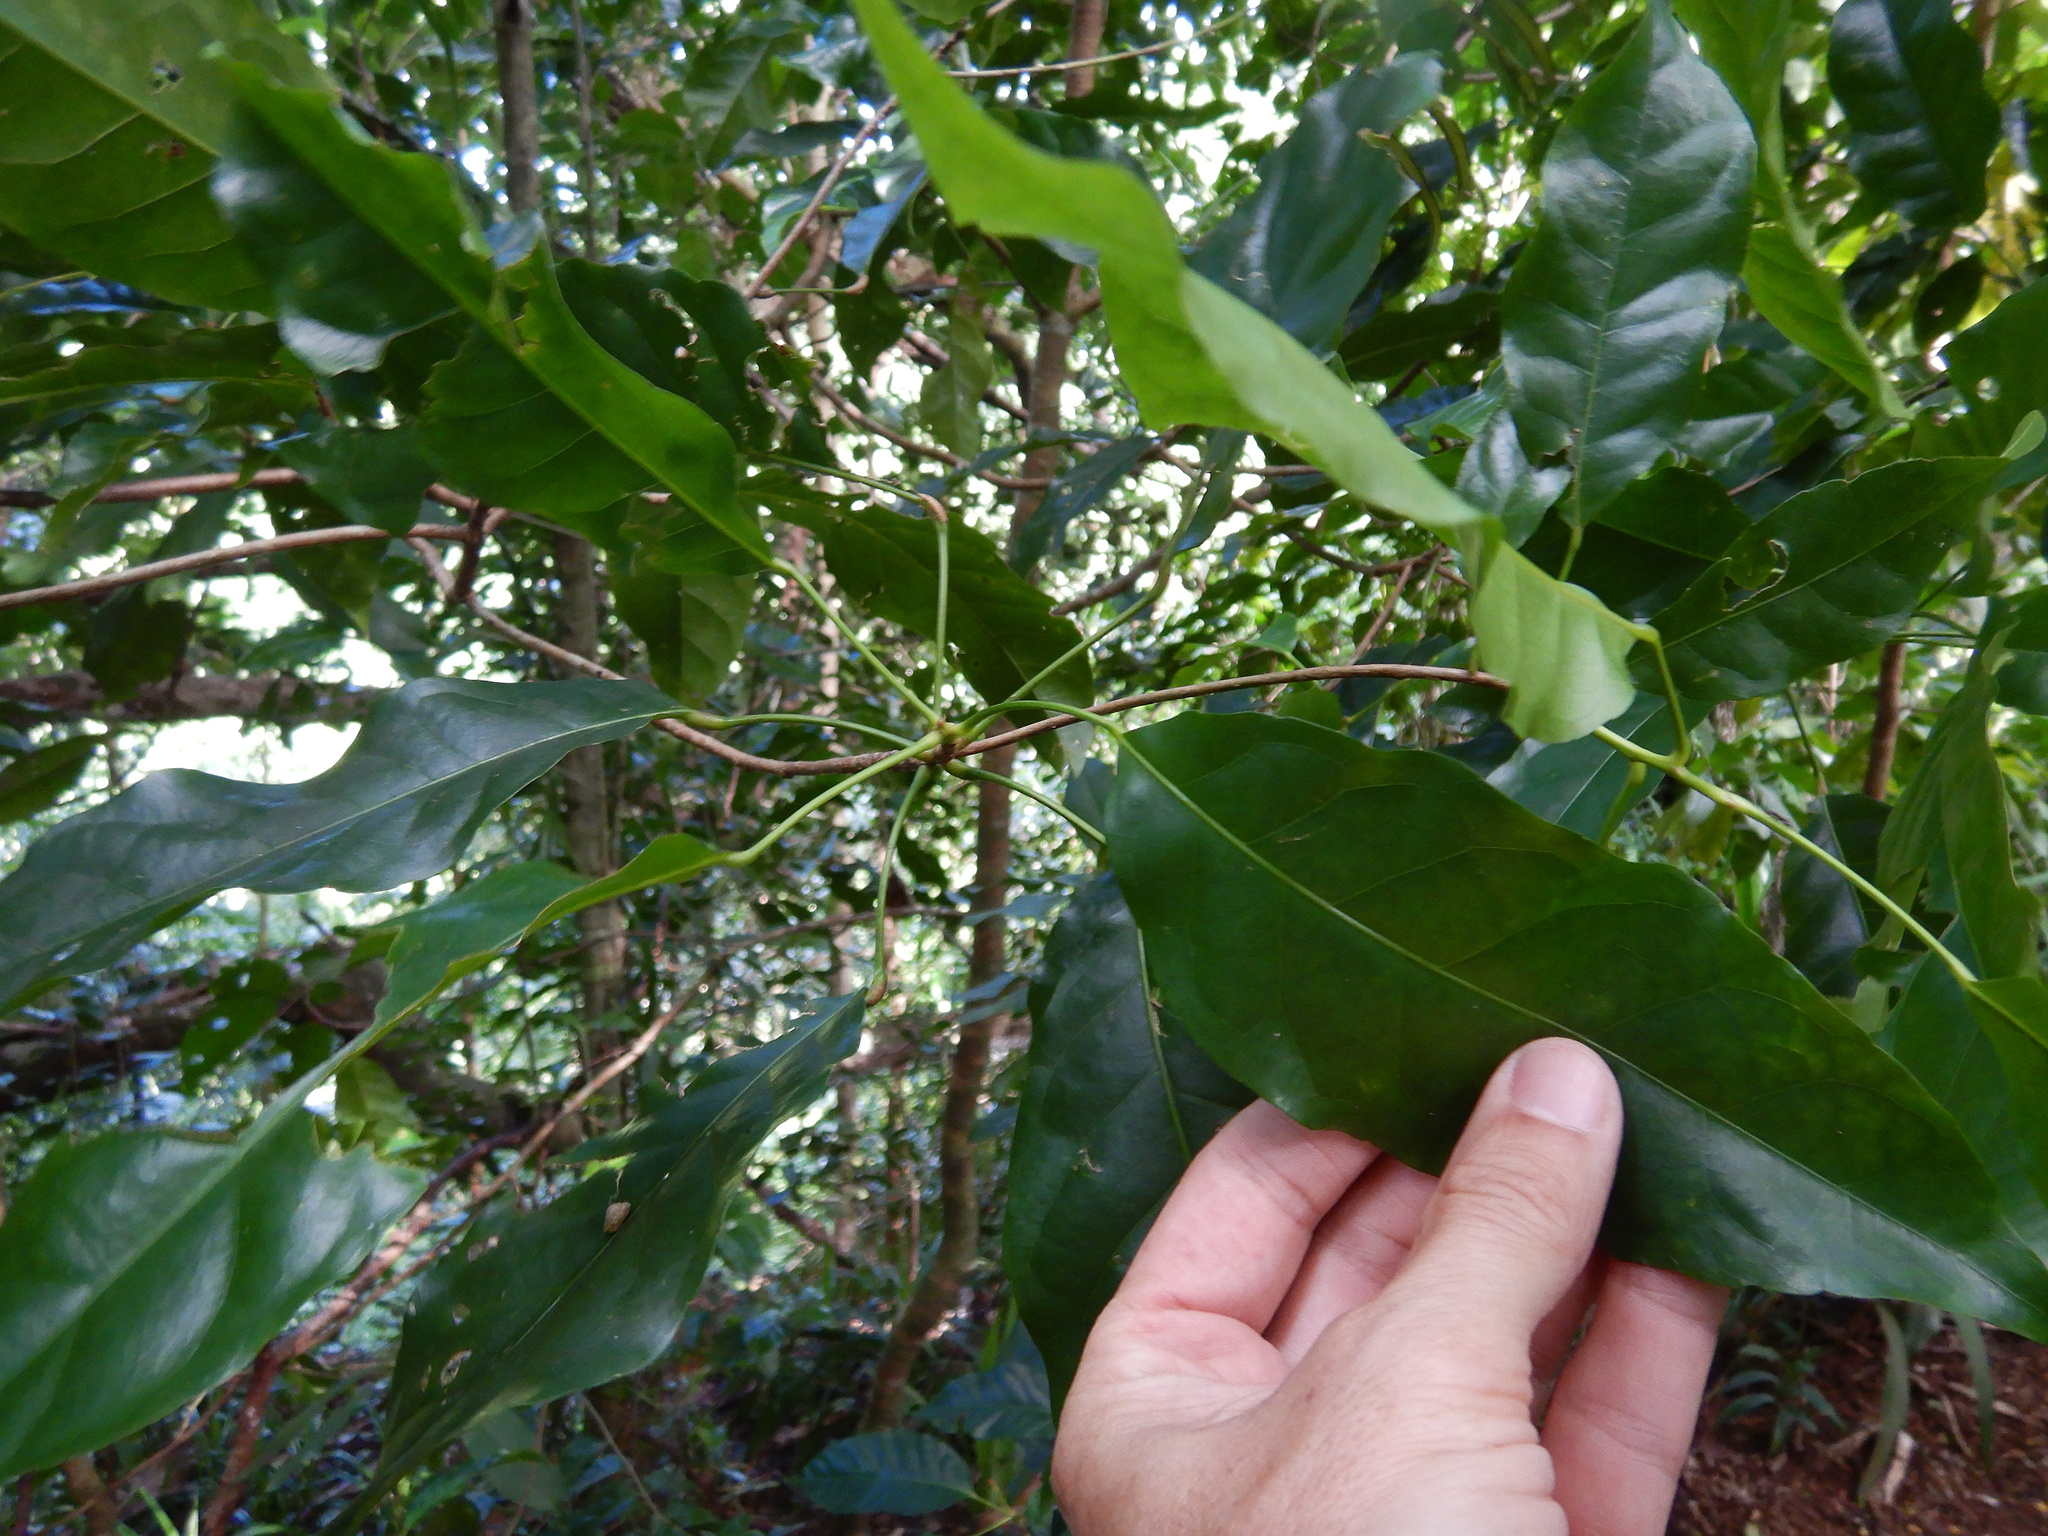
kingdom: Plantae
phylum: Tracheophyta
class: Magnoliopsida
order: Oxalidales
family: Elaeocarpaceae
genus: Elaeocarpus
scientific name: Elaeocarpus floridanus
